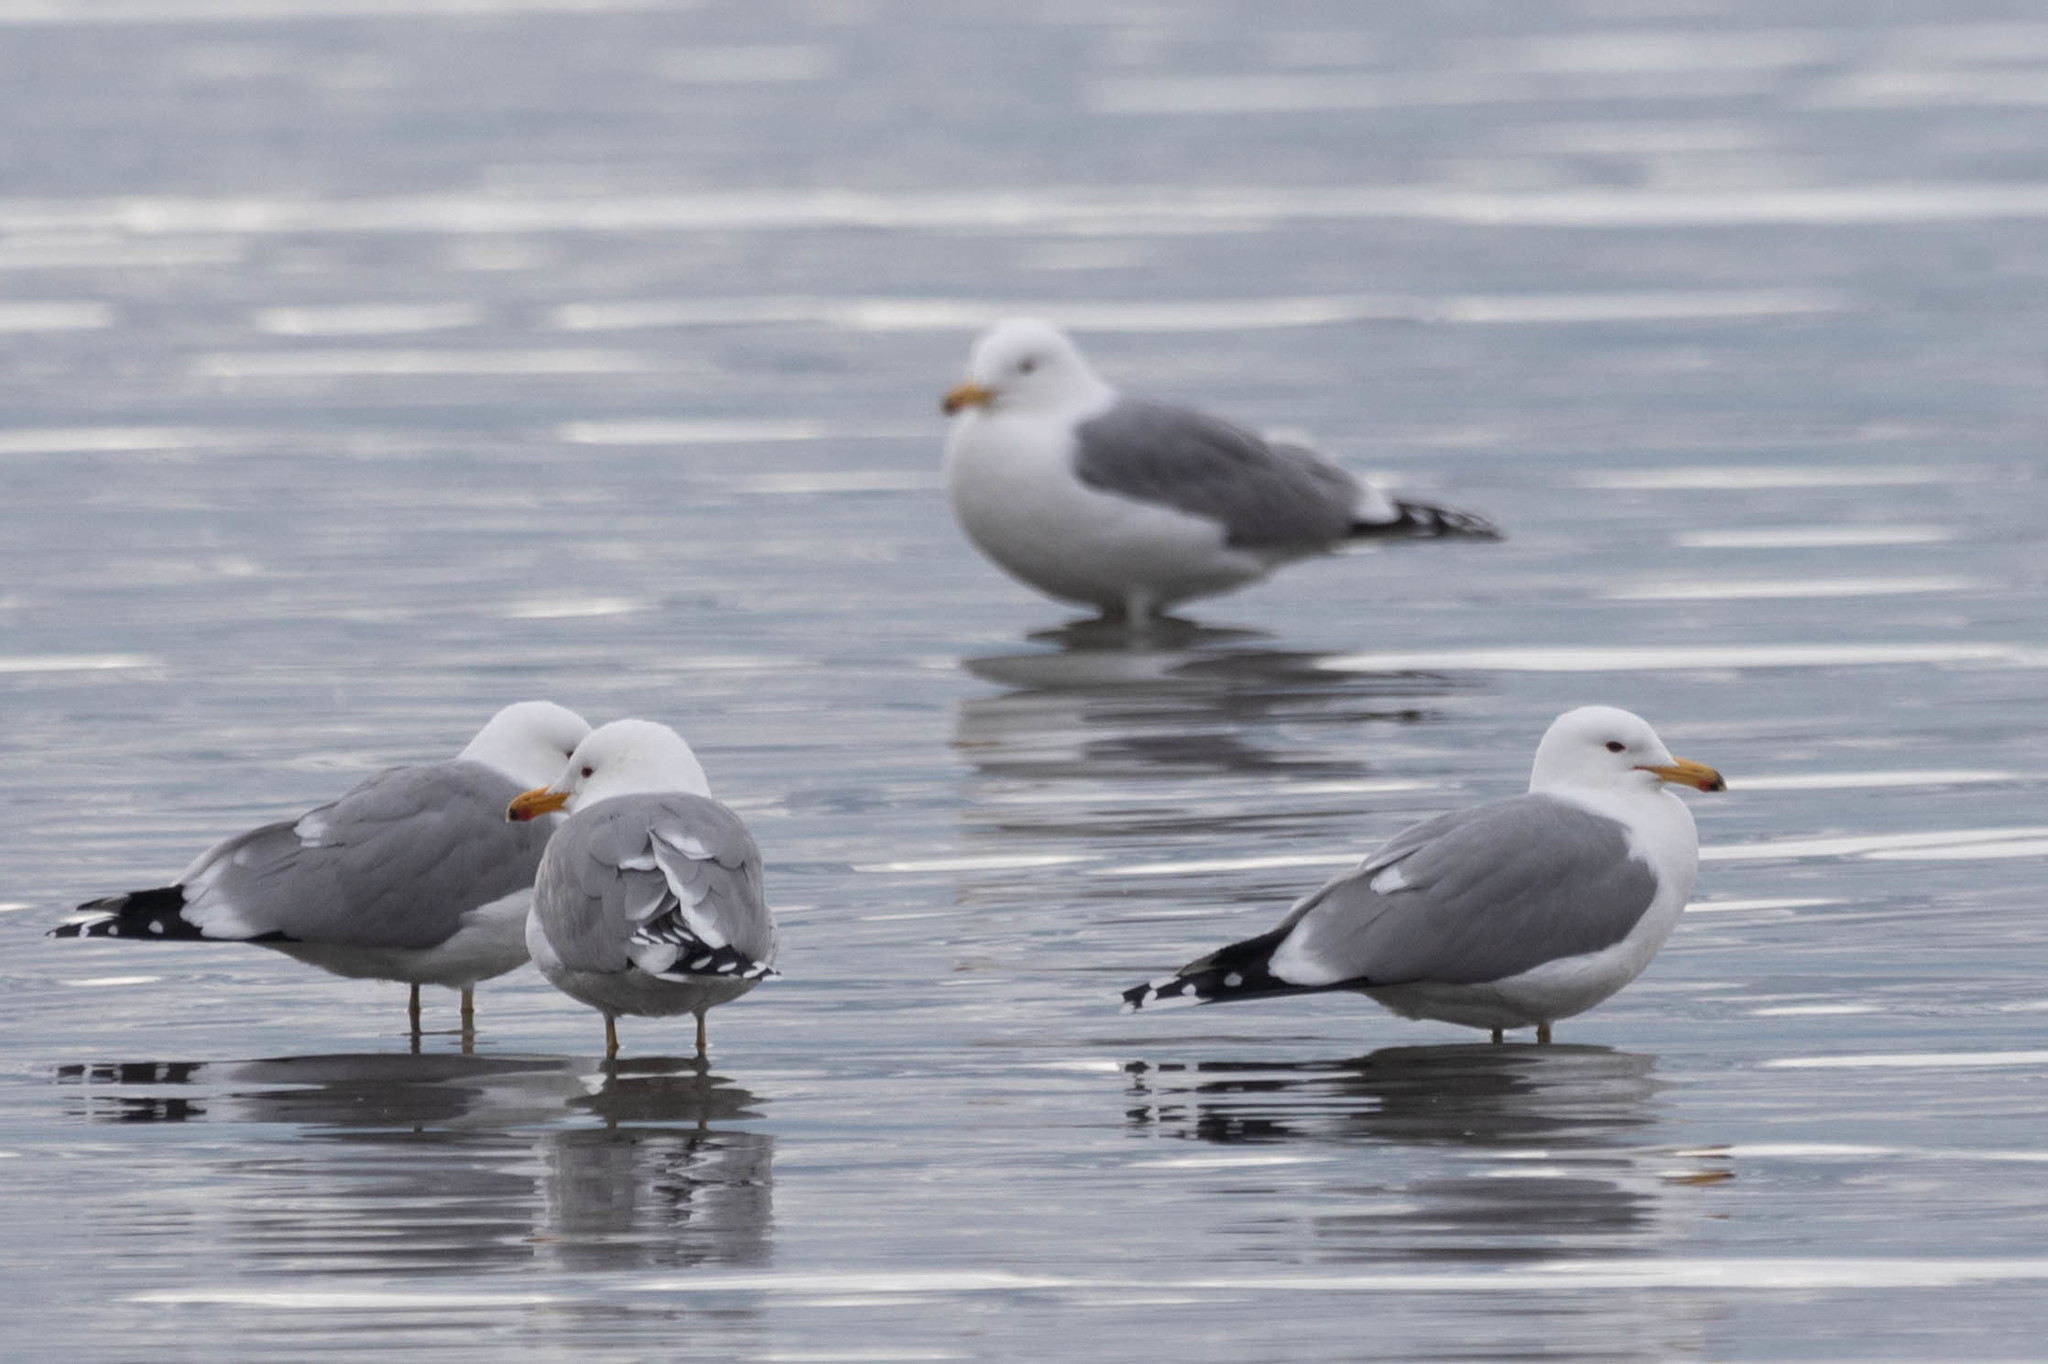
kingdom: Animalia
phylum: Chordata
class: Aves
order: Charadriiformes
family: Laridae
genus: Larus
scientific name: Larus californicus
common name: California gull
